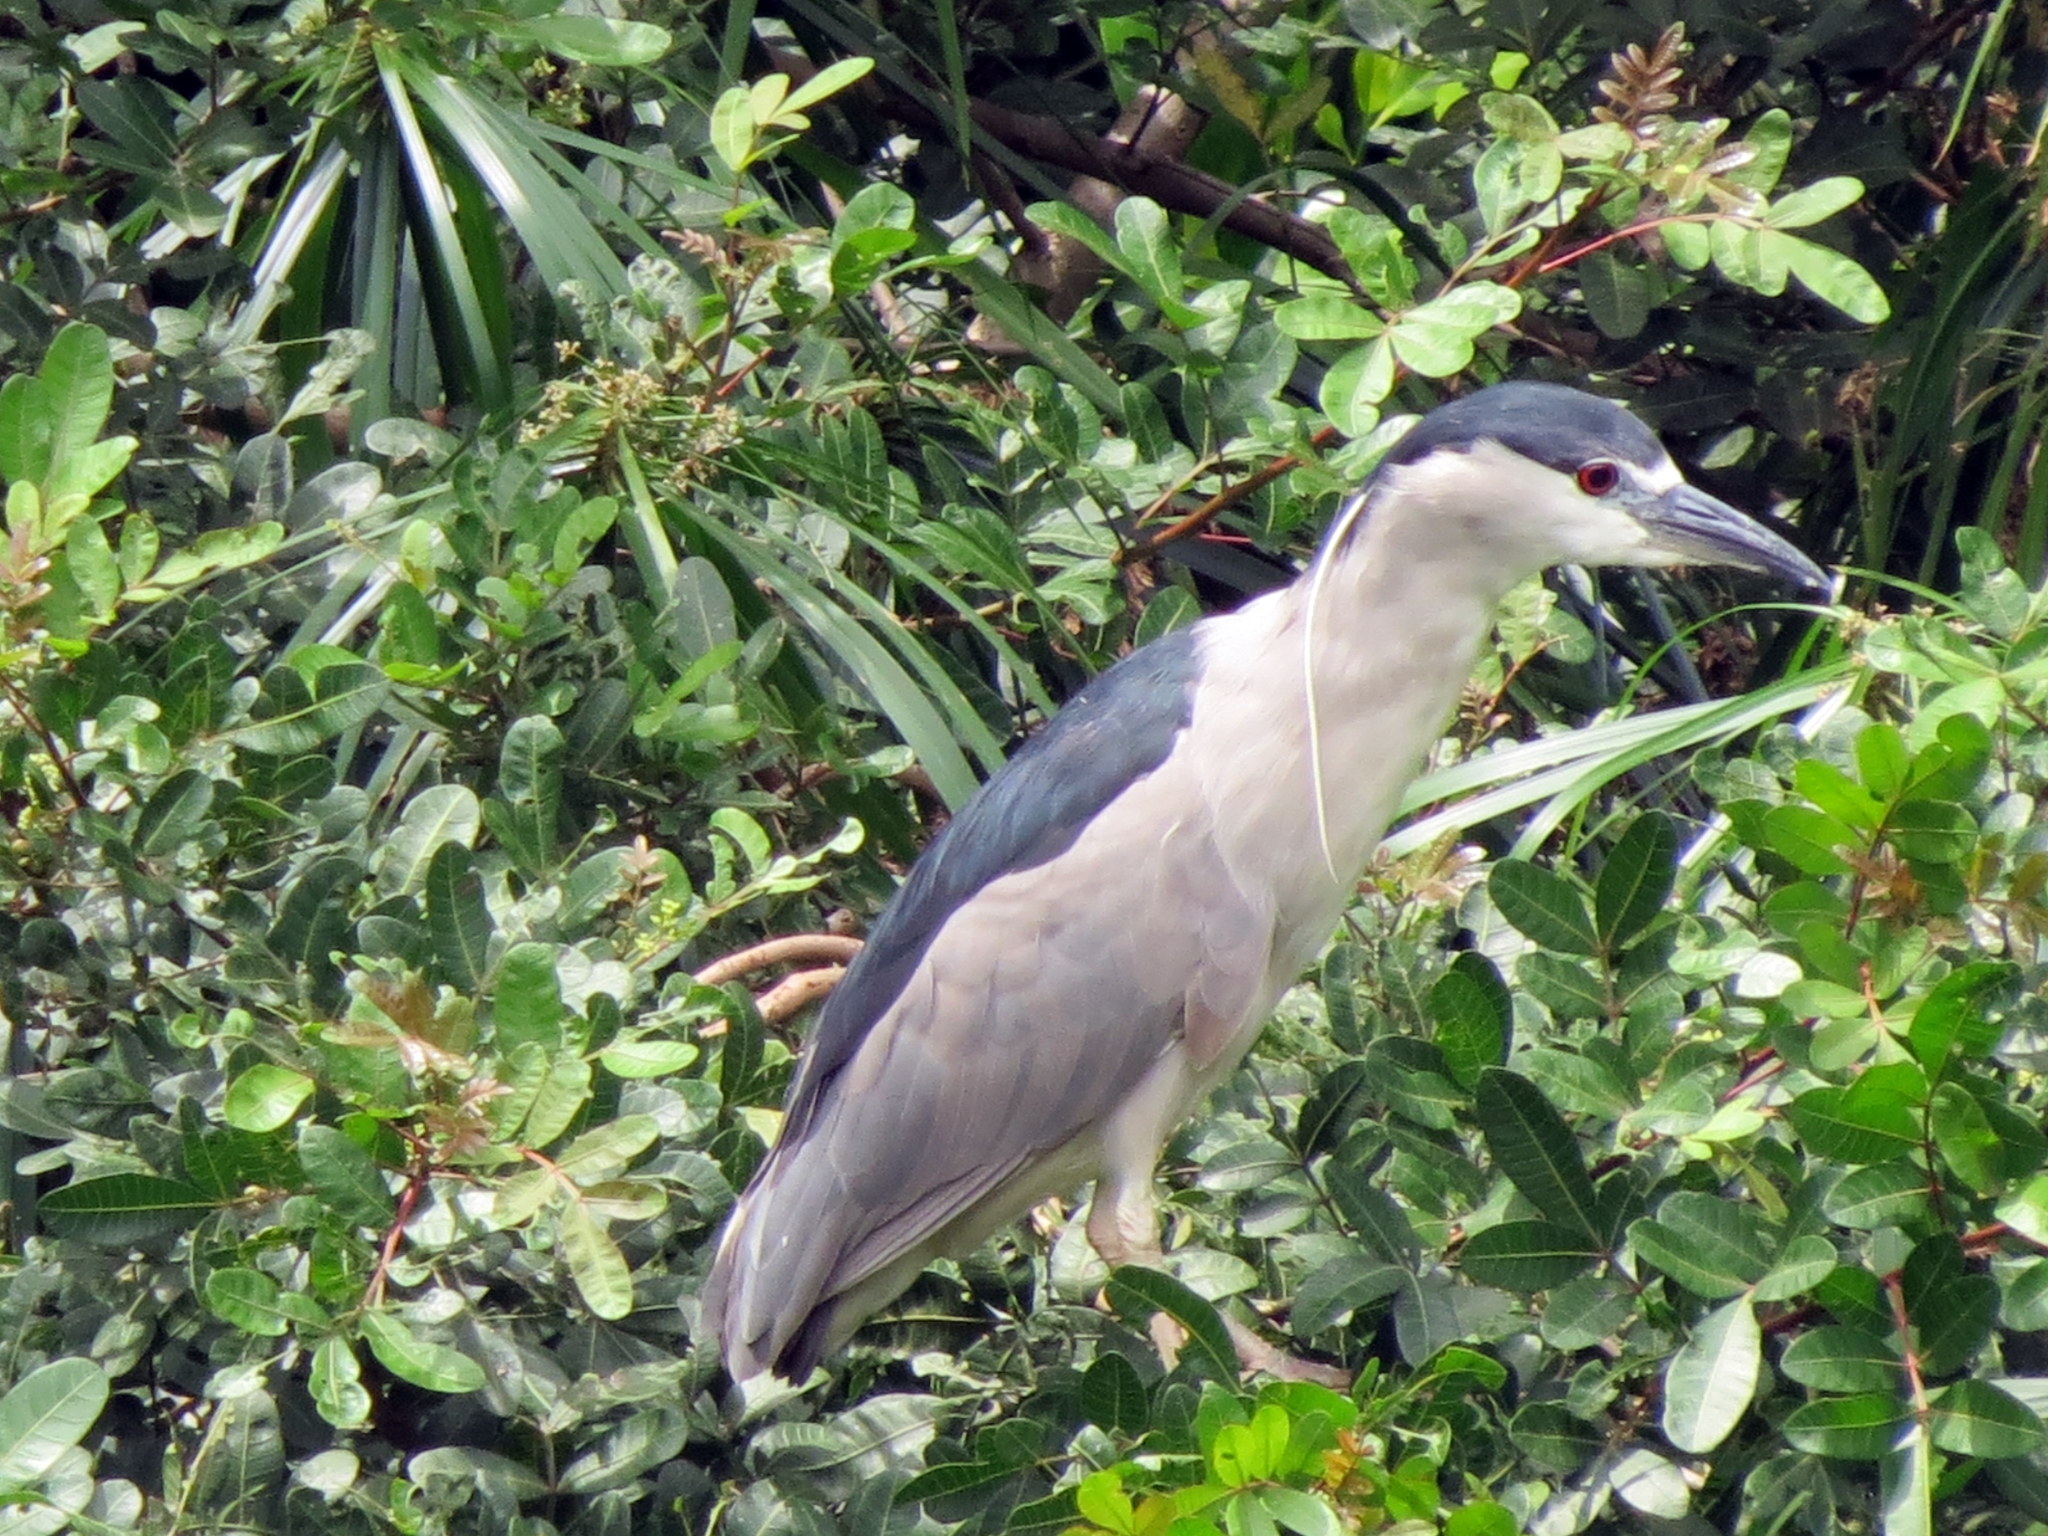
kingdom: Animalia
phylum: Chordata
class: Aves
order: Pelecaniformes
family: Ardeidae
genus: Nycticorax
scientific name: Nycticorax nycticorax
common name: Black-crowned night heron
